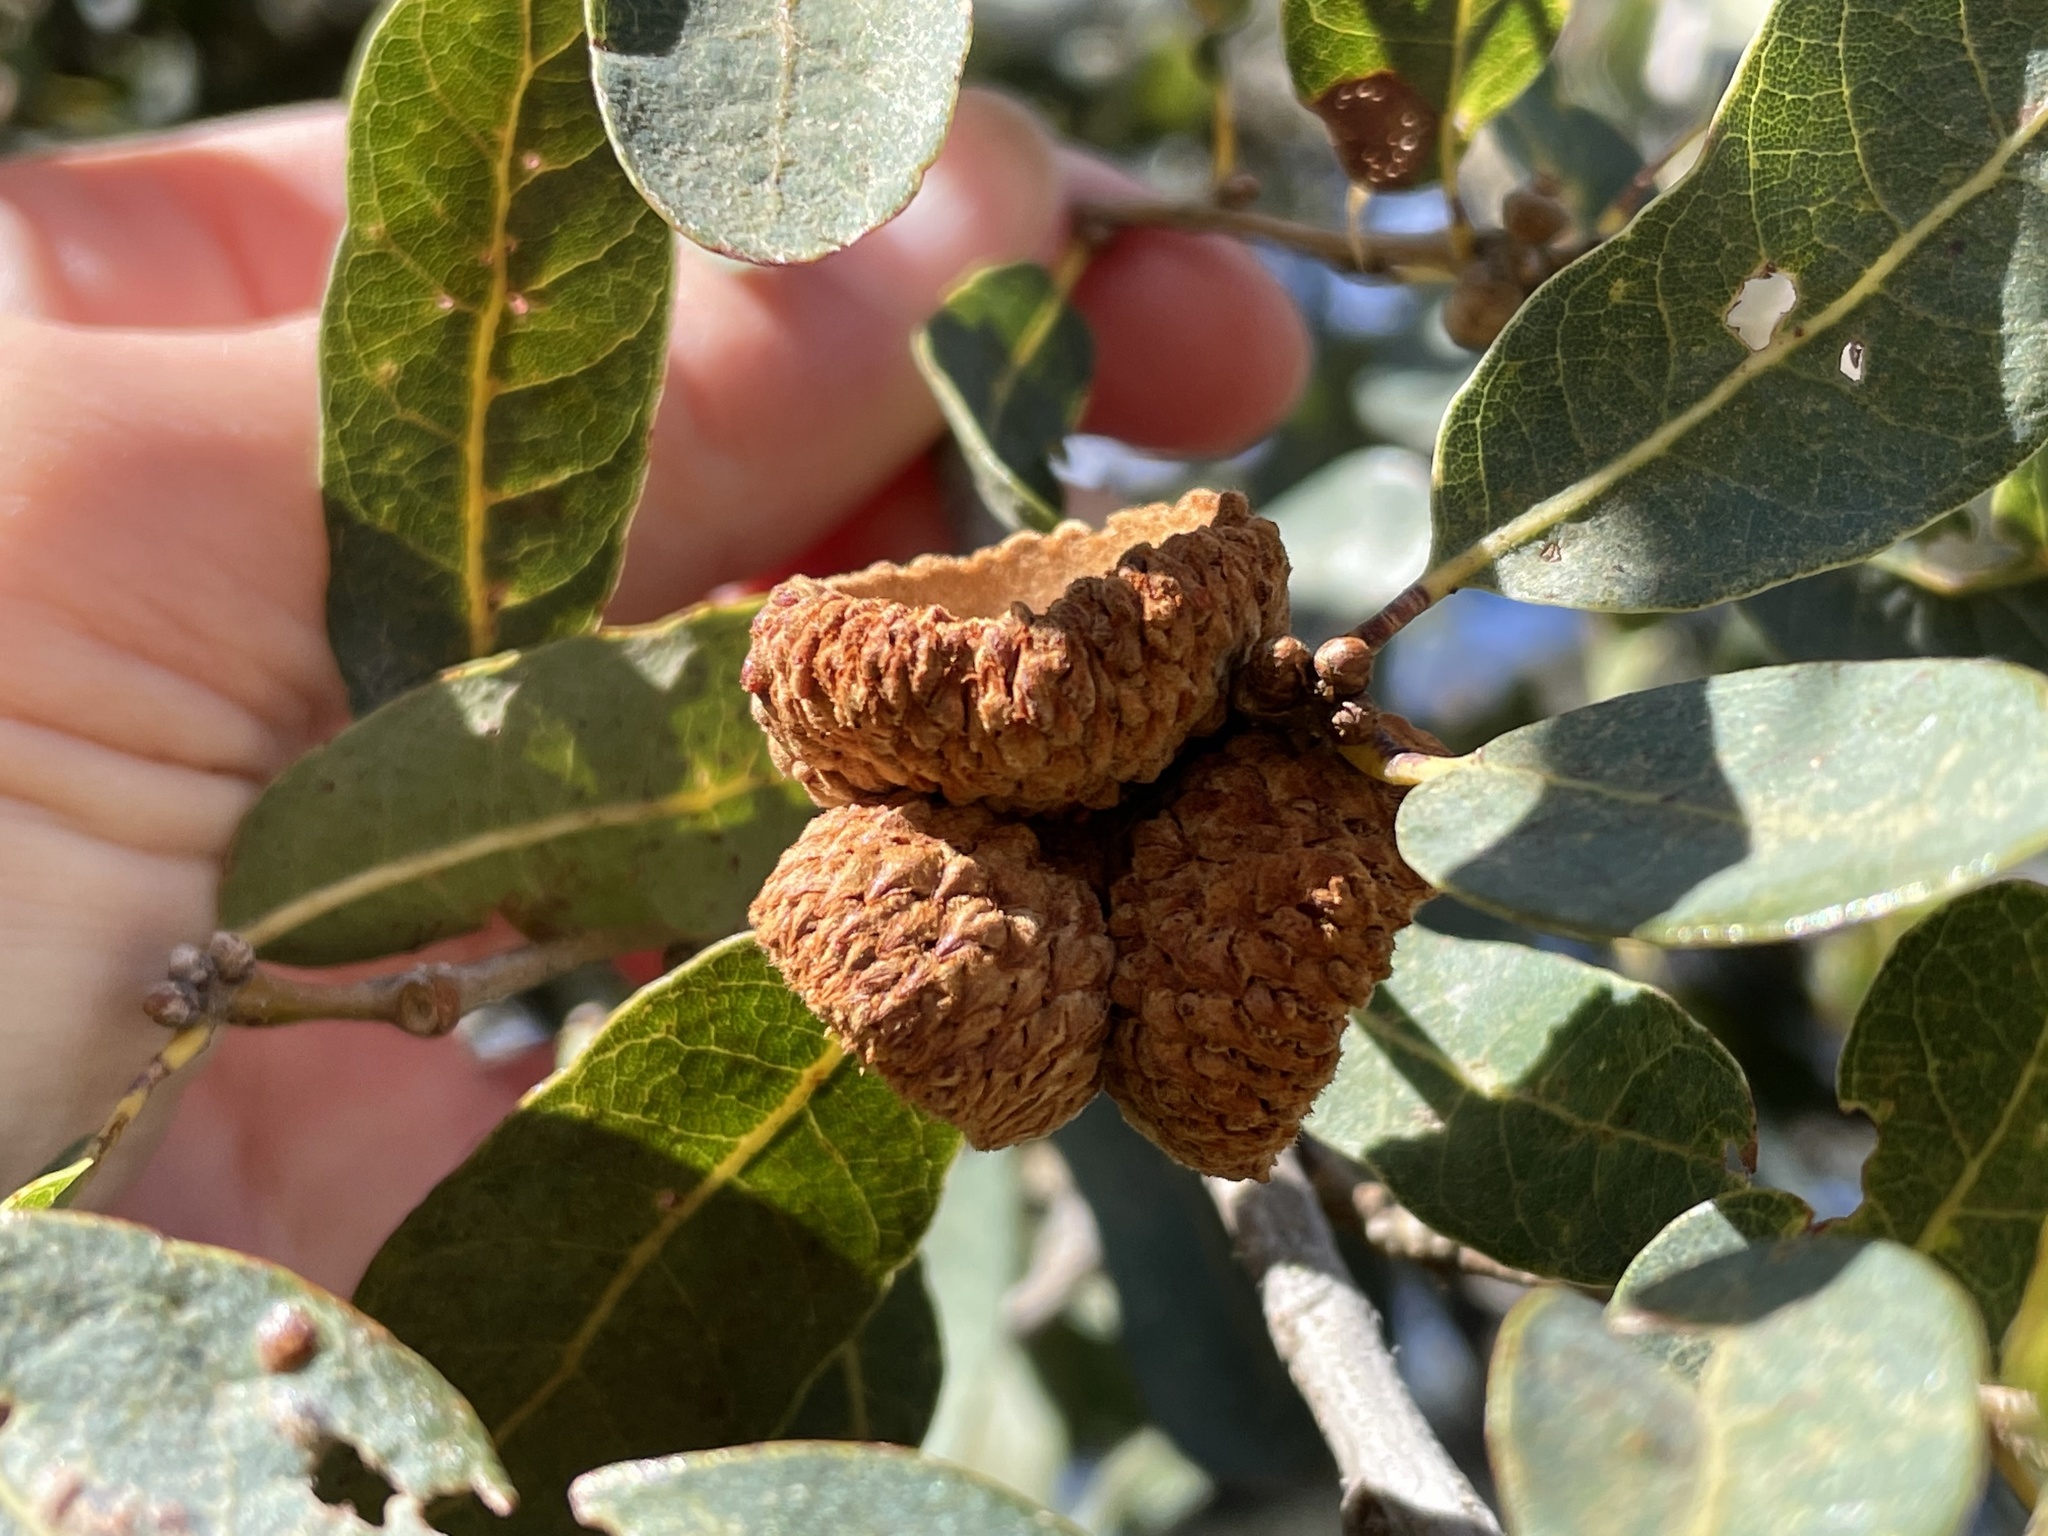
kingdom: Plantae
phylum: Tracheophyta
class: Magnoliopsida
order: Fagales
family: Fagaceae
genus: Quercus
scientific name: Quercus engelmannii
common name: Engelmann oak
